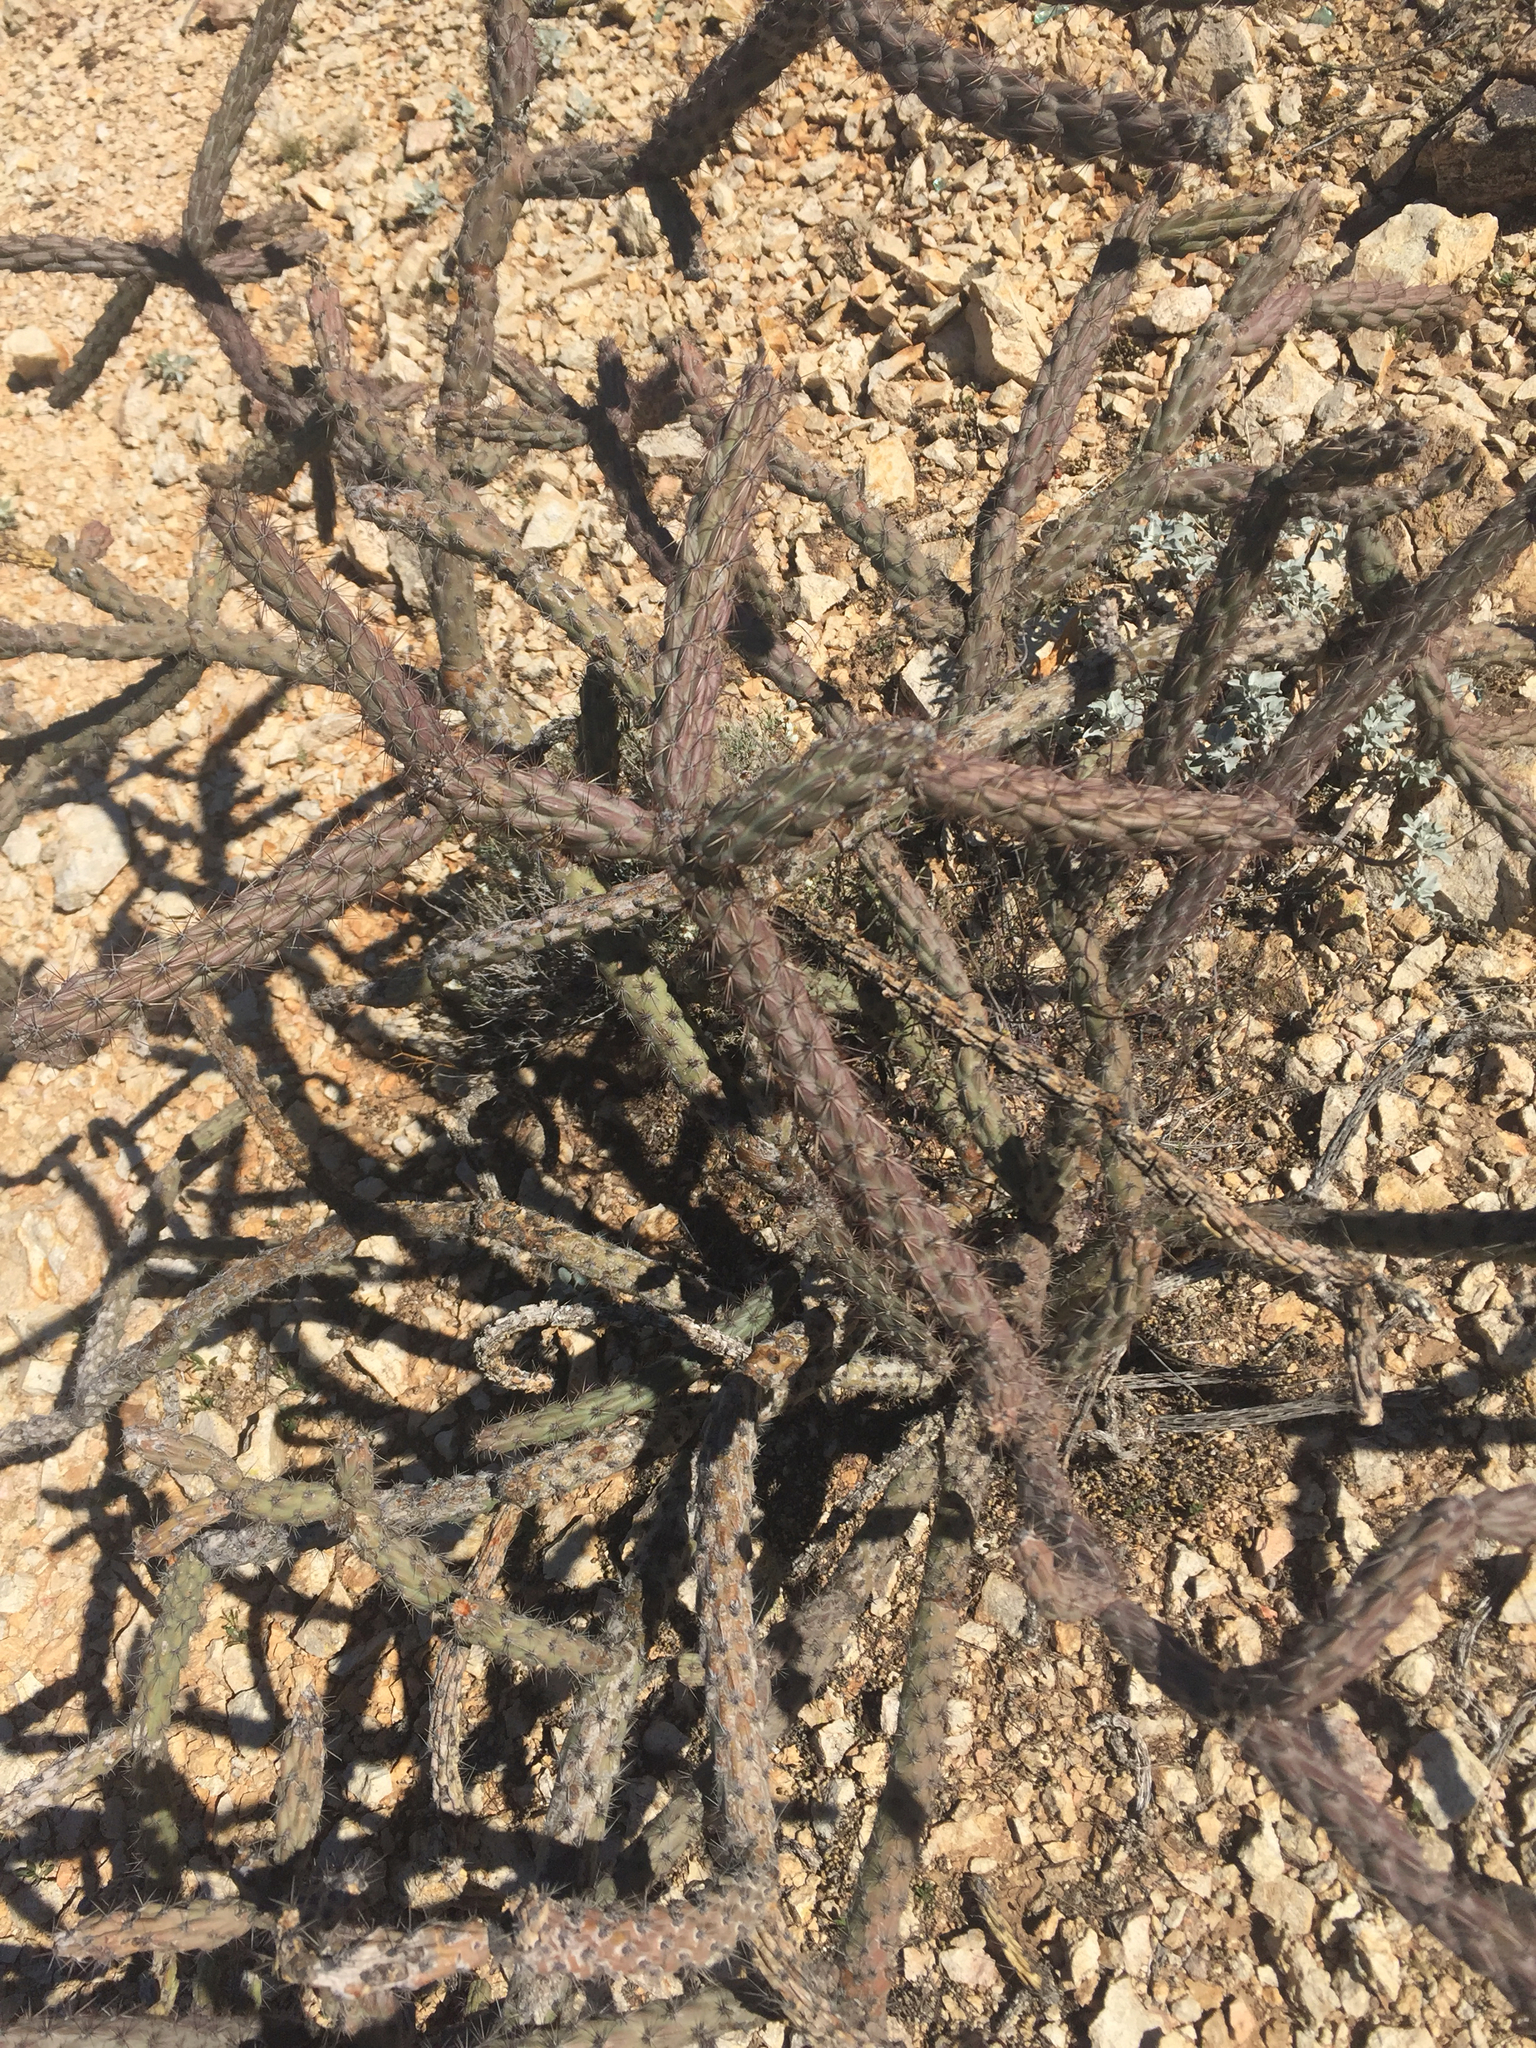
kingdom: Plantae
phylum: Tracheophyta
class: Magnoliopsida
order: Caryophyllales
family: Cactaceae
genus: Cylindropuntia
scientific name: Cylindropuntia thurberi
